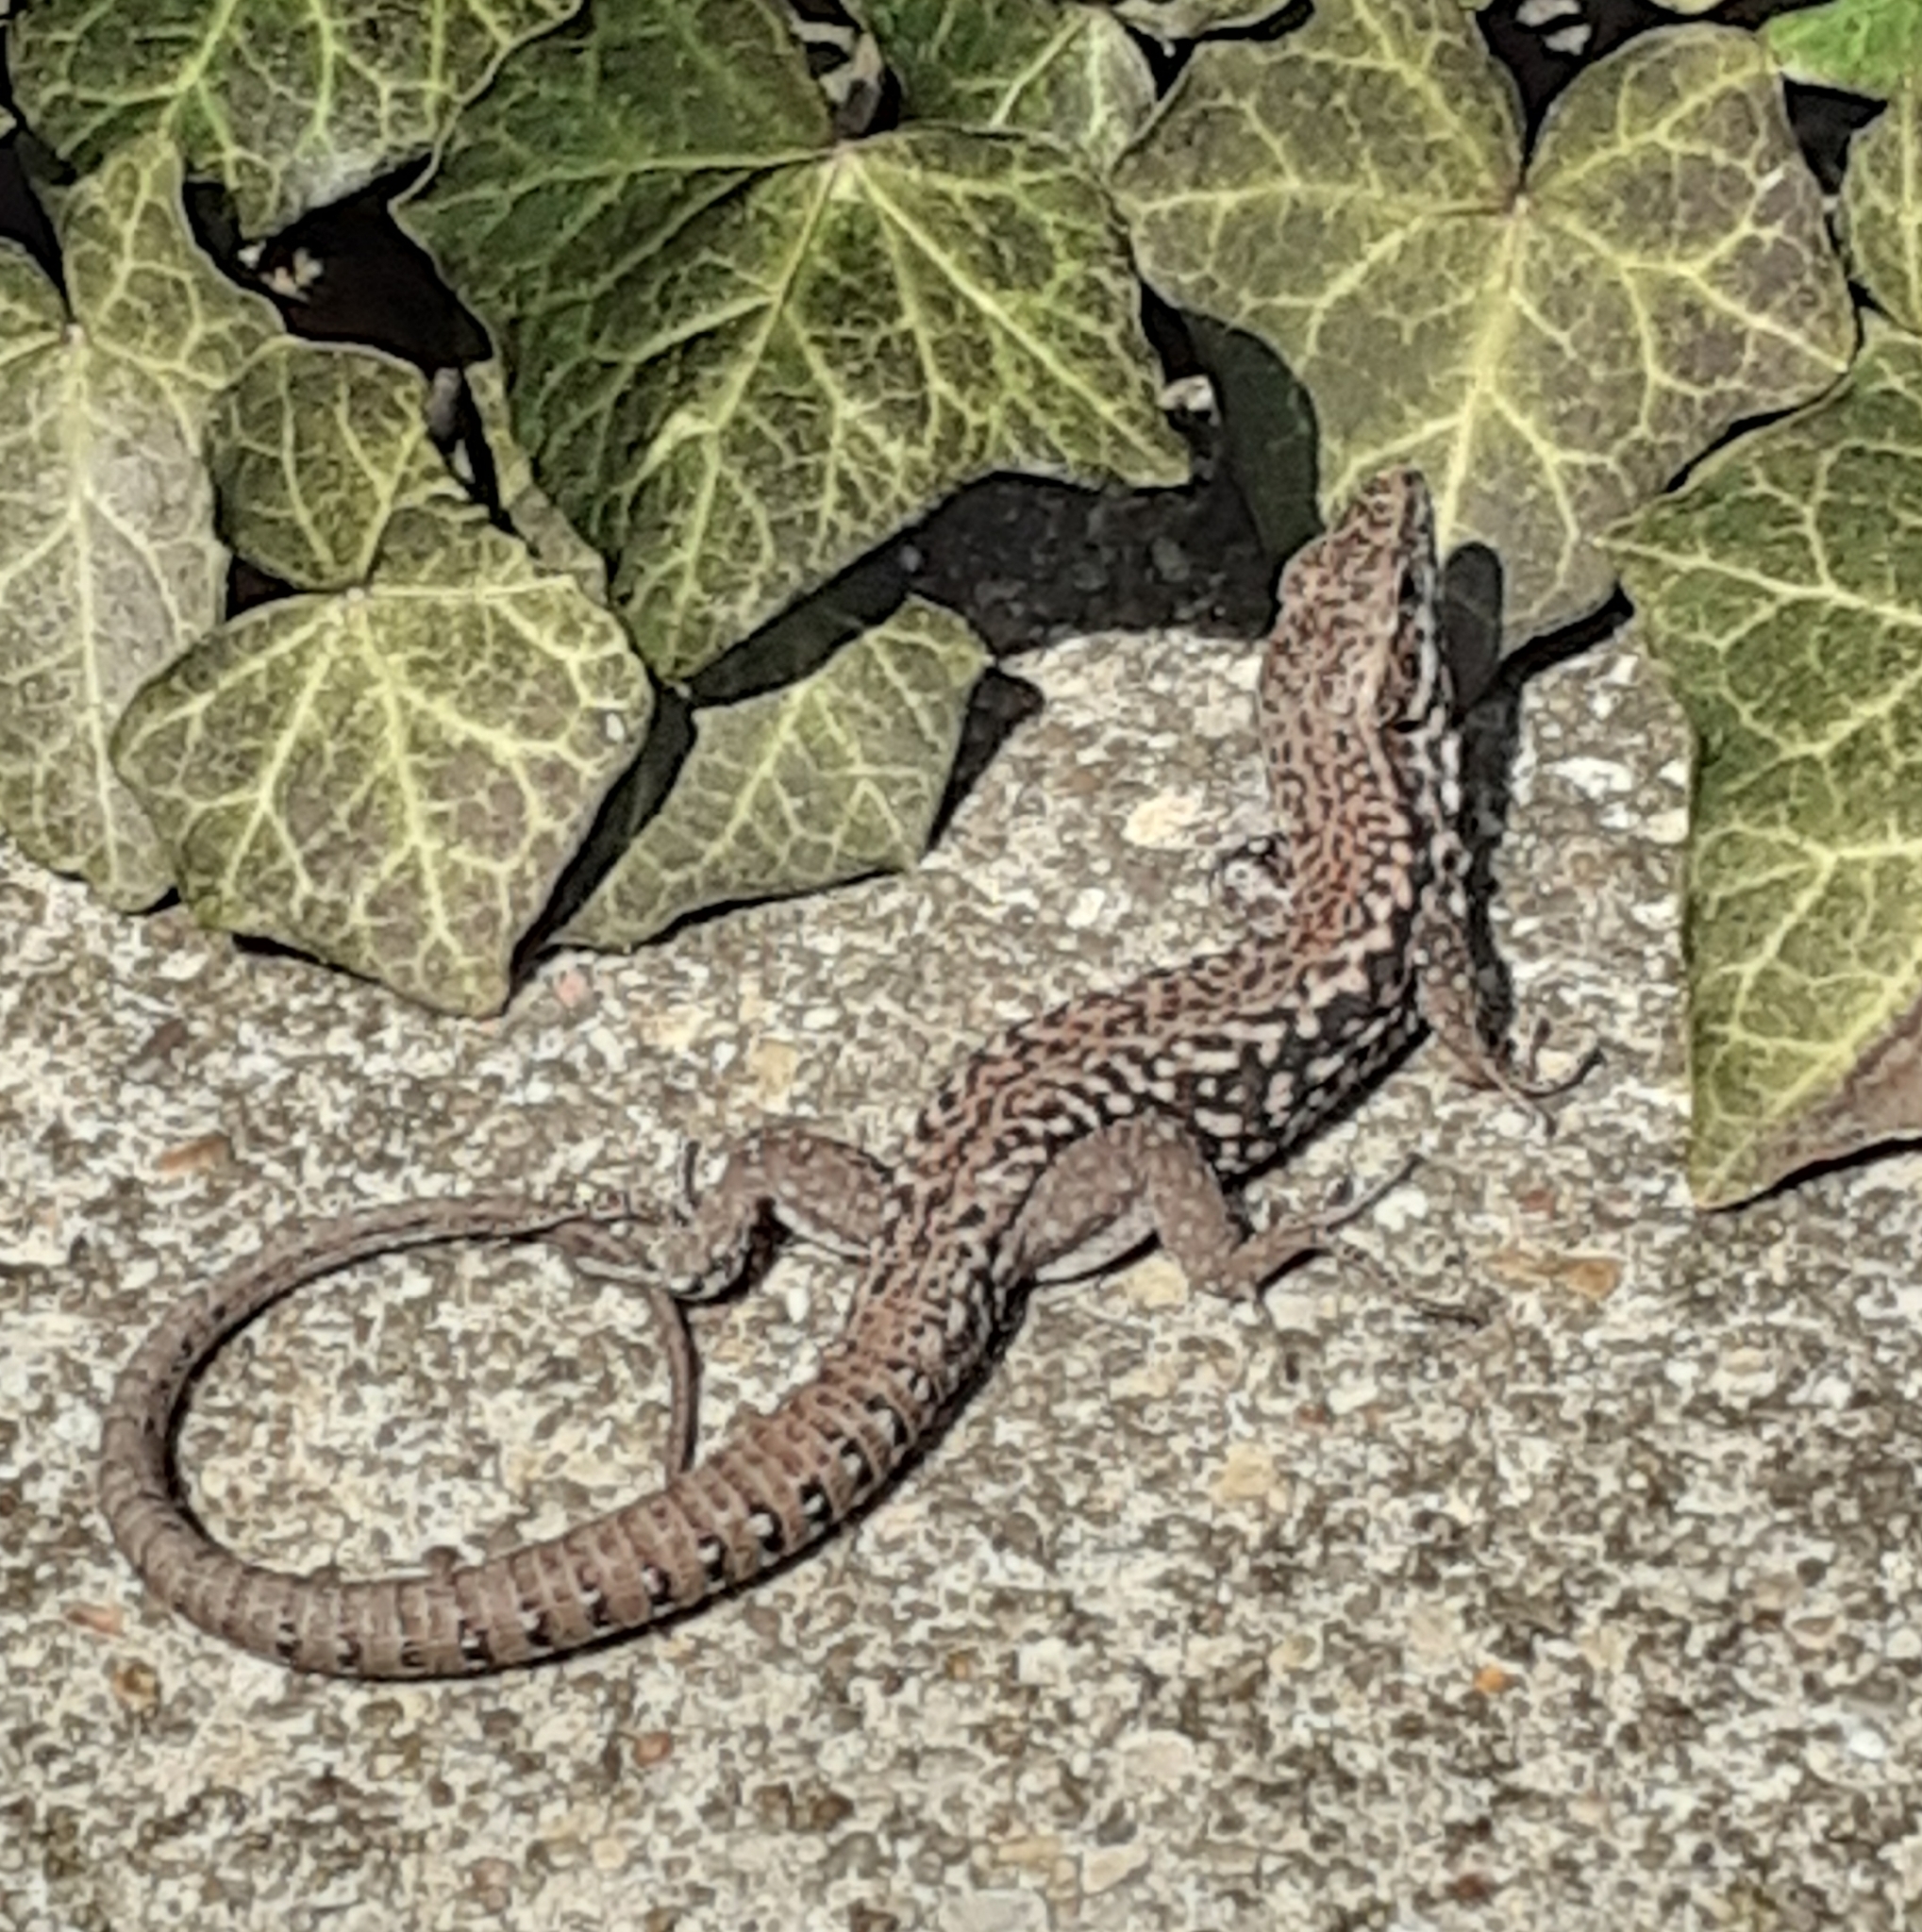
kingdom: Animalia
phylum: Chordata
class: Squamata
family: Lacertidae
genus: Podarcis
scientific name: Podarcis muralis
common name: Common wall lizard
